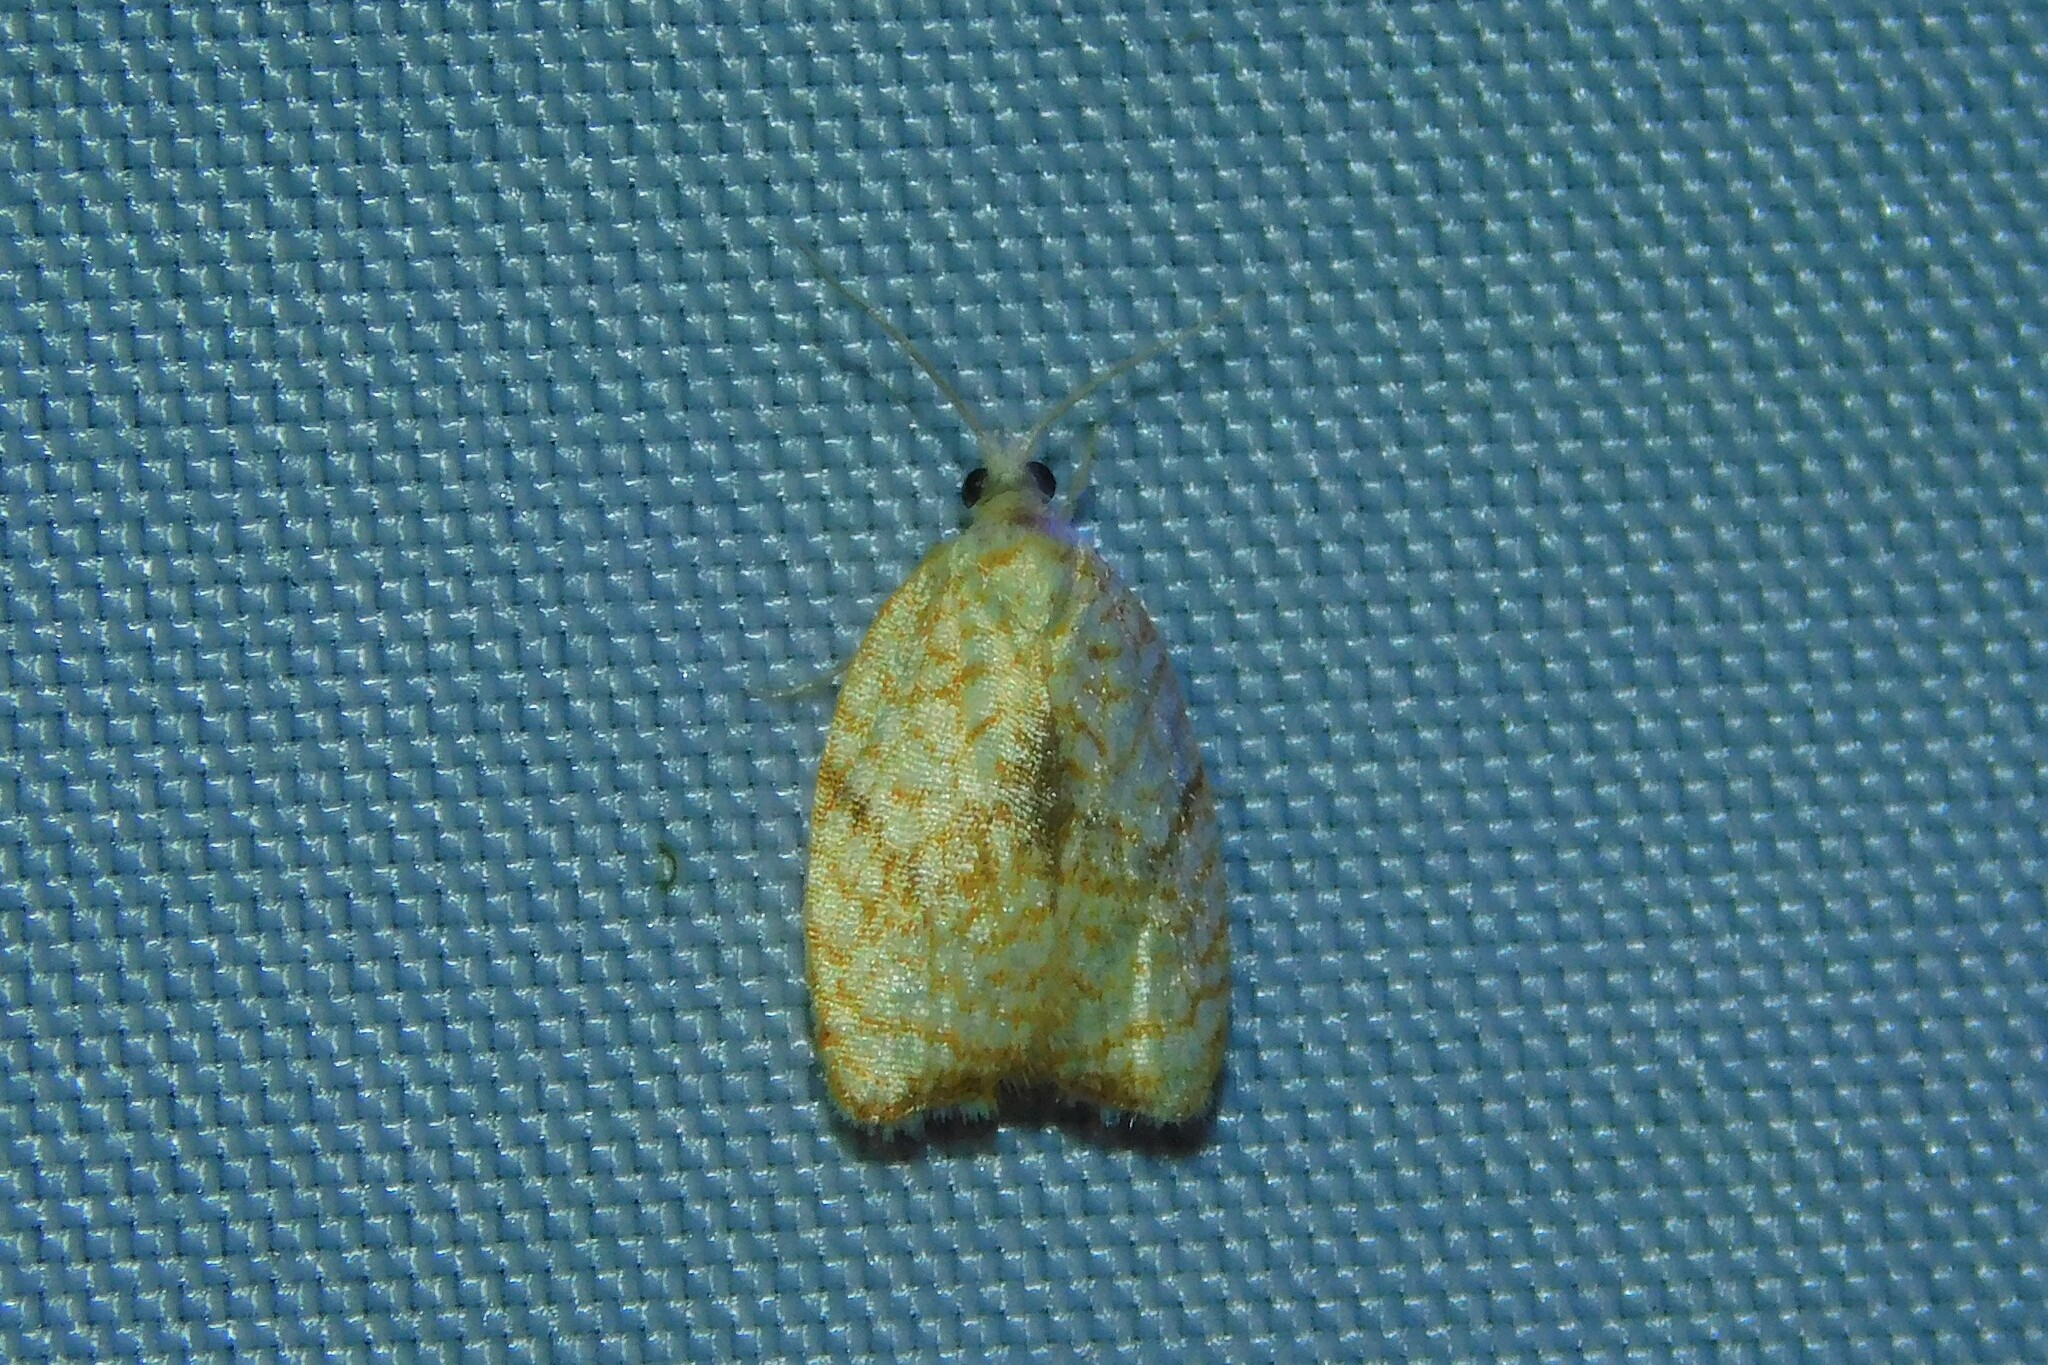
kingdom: Animalia
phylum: Arthropoda
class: Insecta
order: Lepidoptera
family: Tortricidae
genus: Acleris
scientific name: Acleris forsskaleana
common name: Maple button
